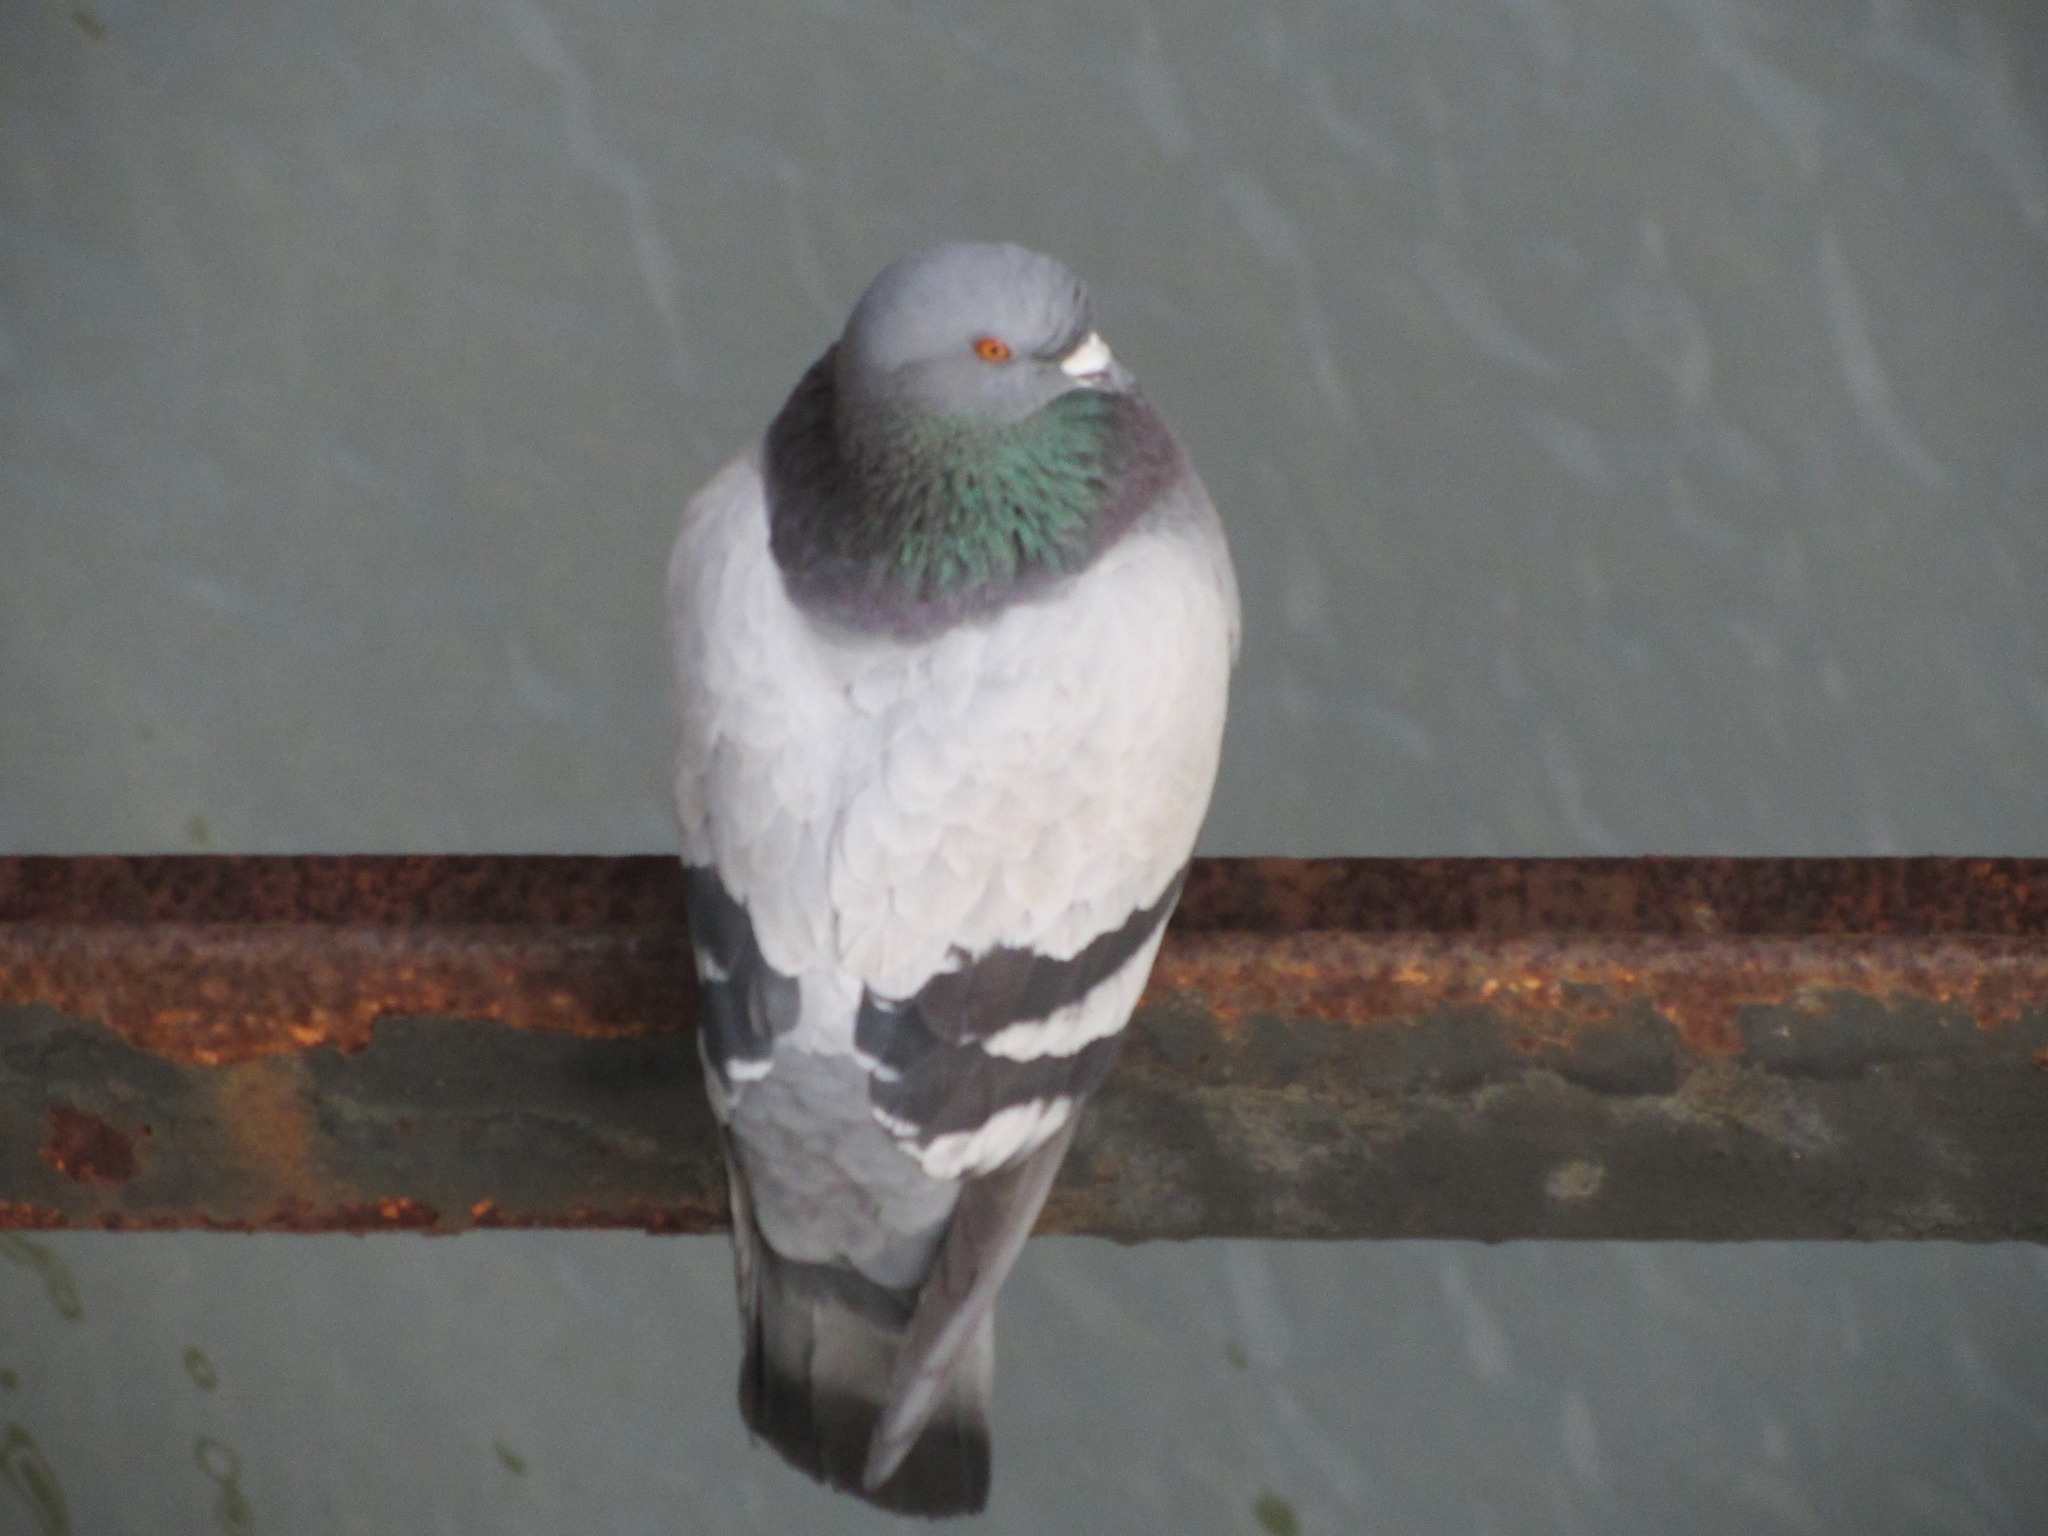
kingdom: Animalia
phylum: Chordata
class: Aves
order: Columbiformes
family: Columbidae
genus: Columba
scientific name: Columba livia
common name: Rock pigeon
